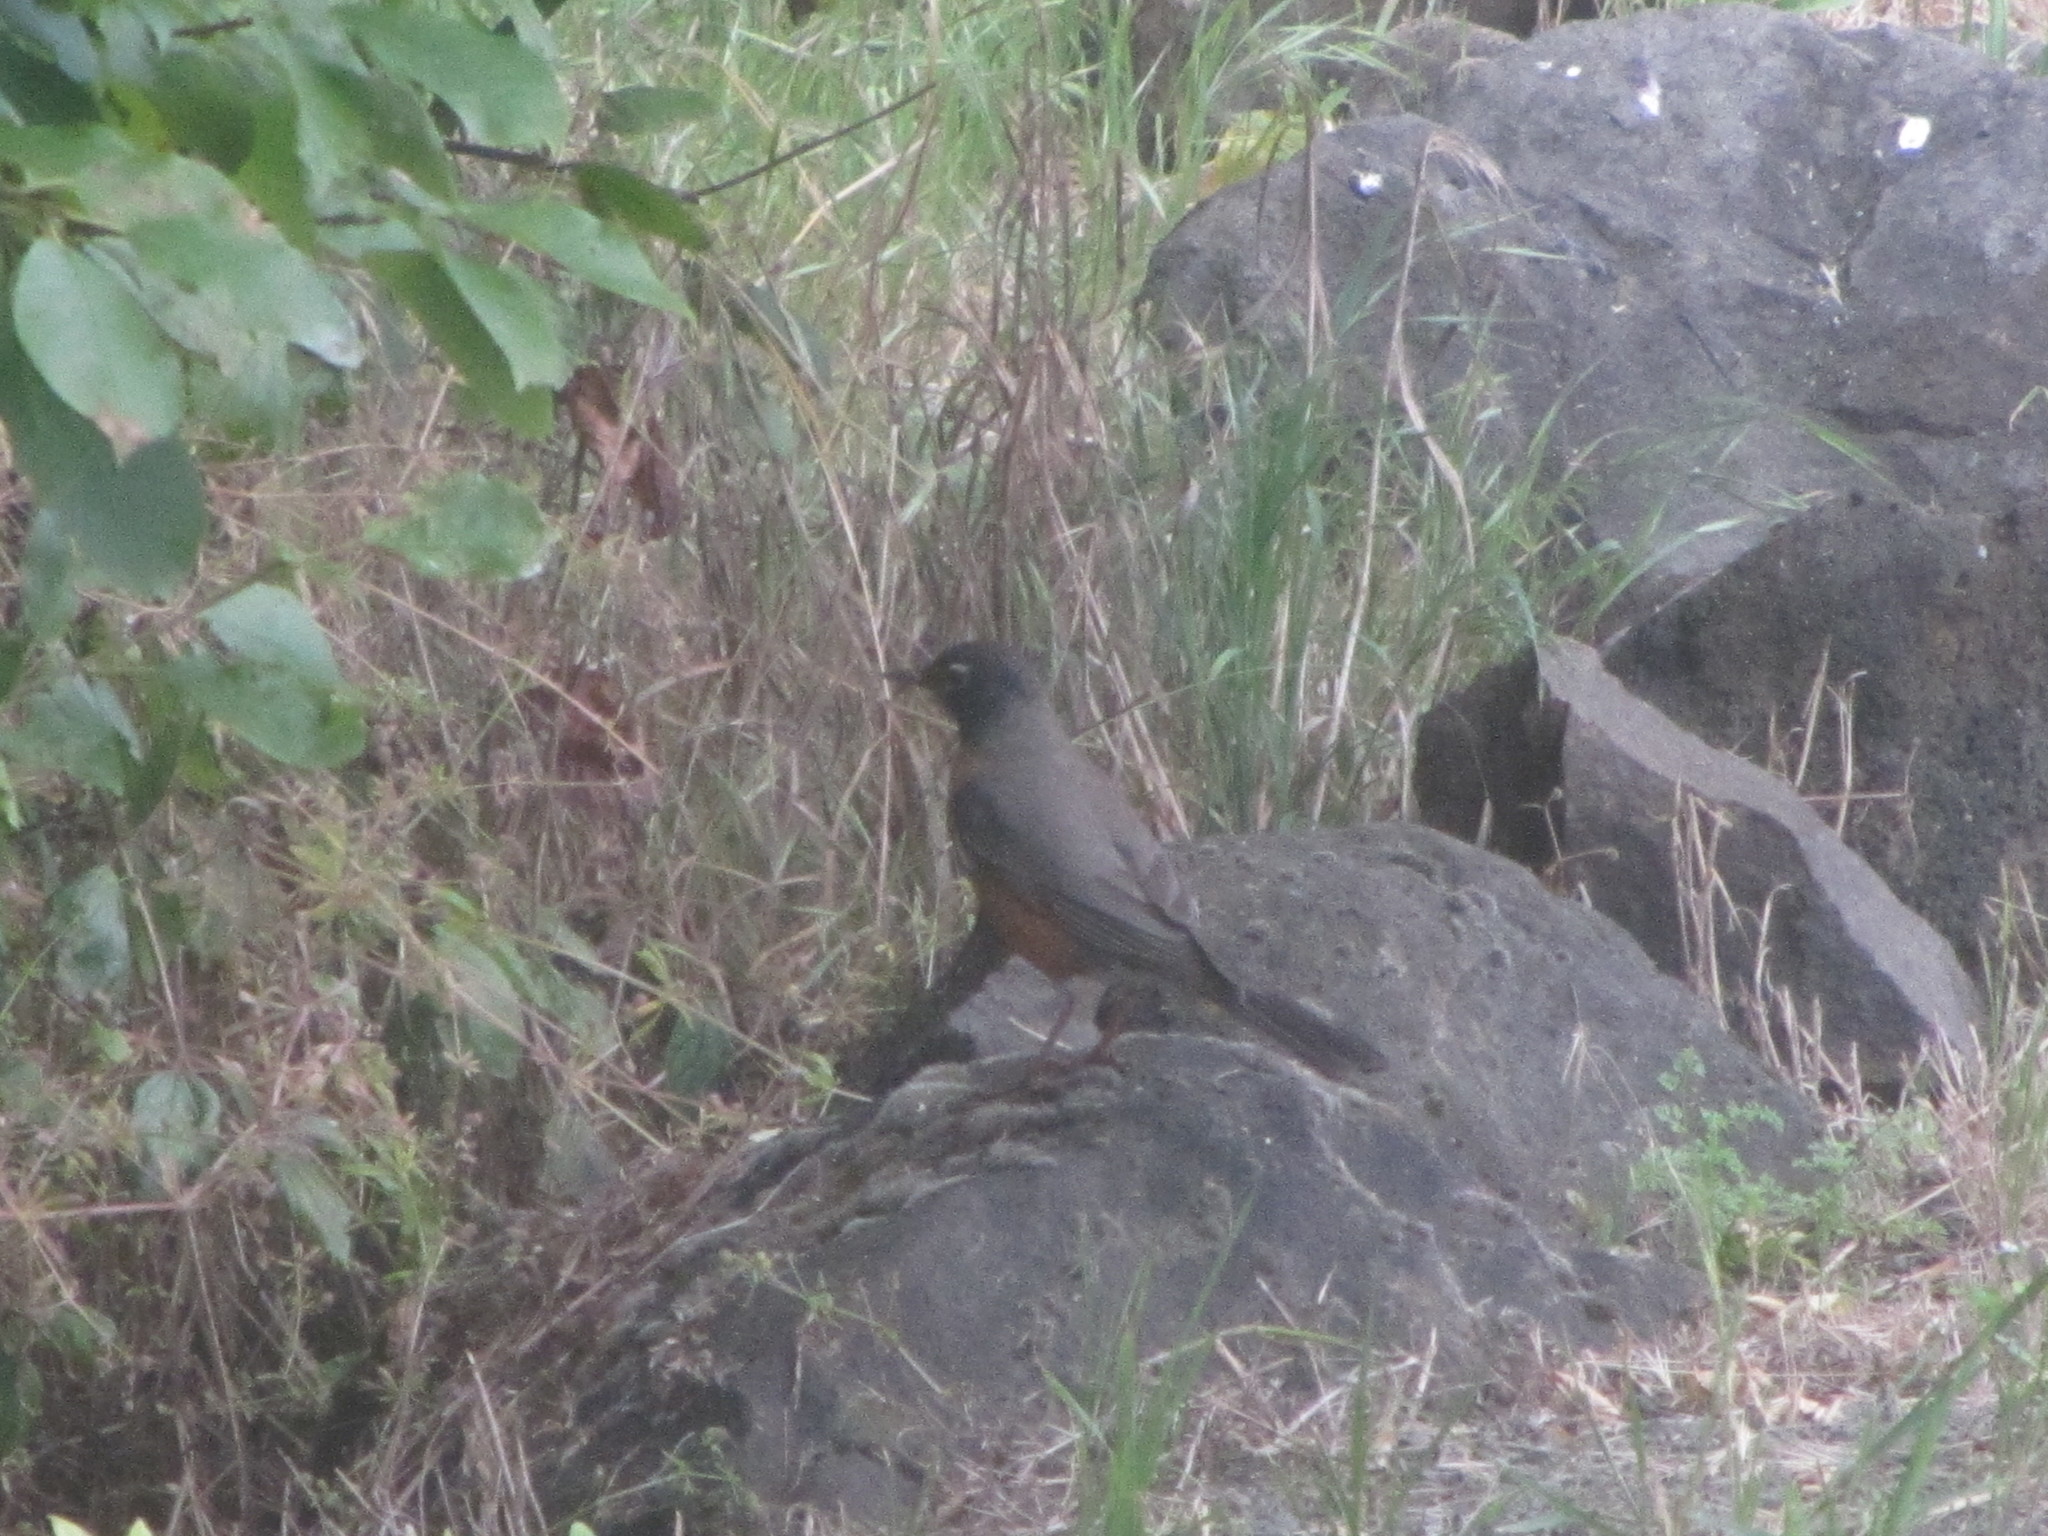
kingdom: Animalia
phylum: Chordata
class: Aves
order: Passeriformes
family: Turdidae
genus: Turdus
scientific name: Turdus migratorius
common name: American robin
